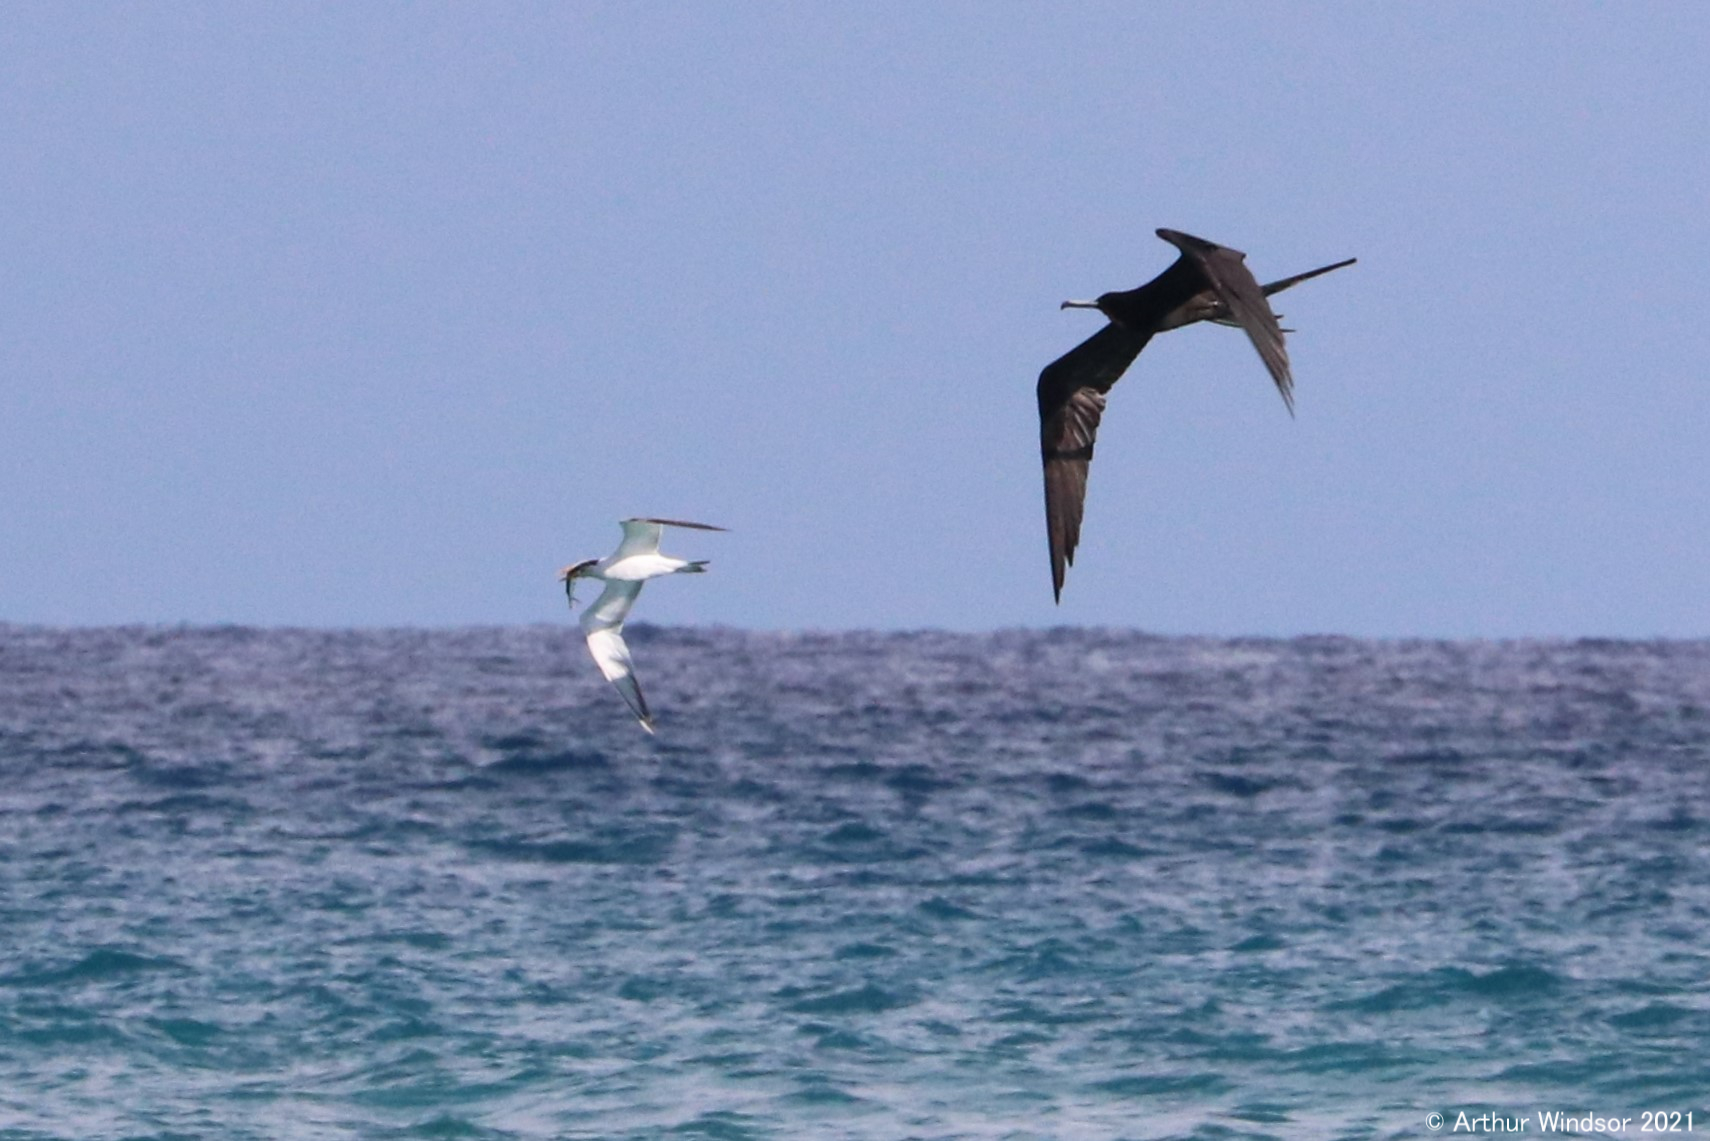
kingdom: Animalia
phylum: Chordata
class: Aves
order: Suliformes
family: Fregatidae
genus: Fregata
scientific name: Fregata magnificens
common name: Magnificent frigatebird
